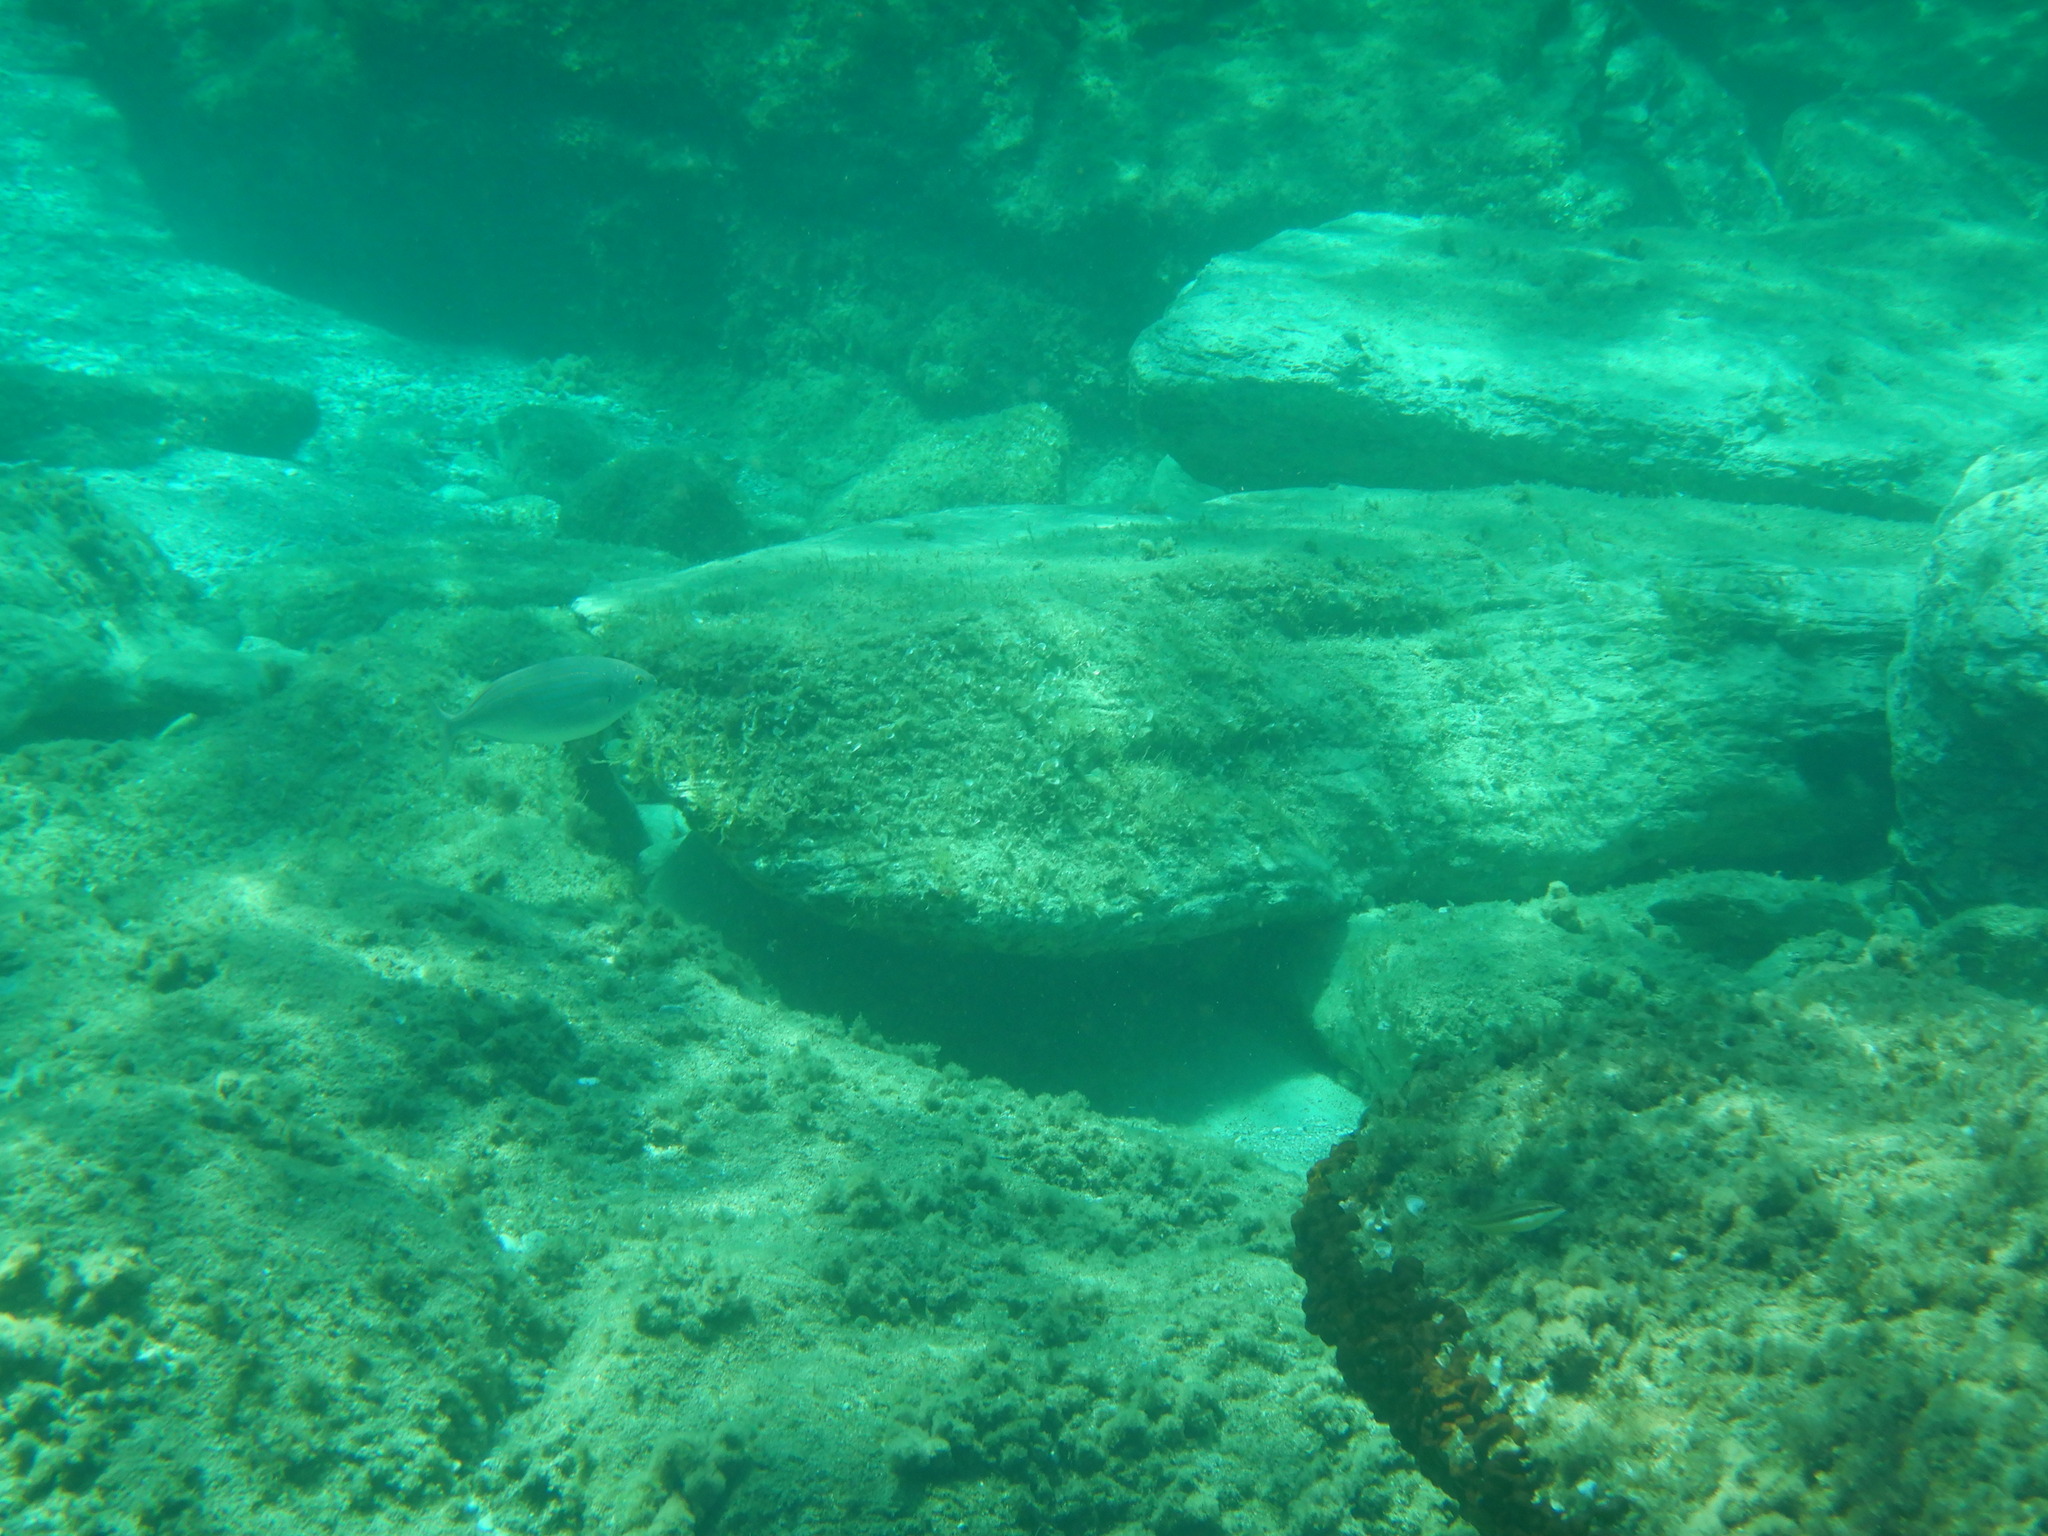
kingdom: Animalia
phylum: Chordata
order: Perciformes
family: Sparidae
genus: Sarpa
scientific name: Sarpa salpa
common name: Salema
